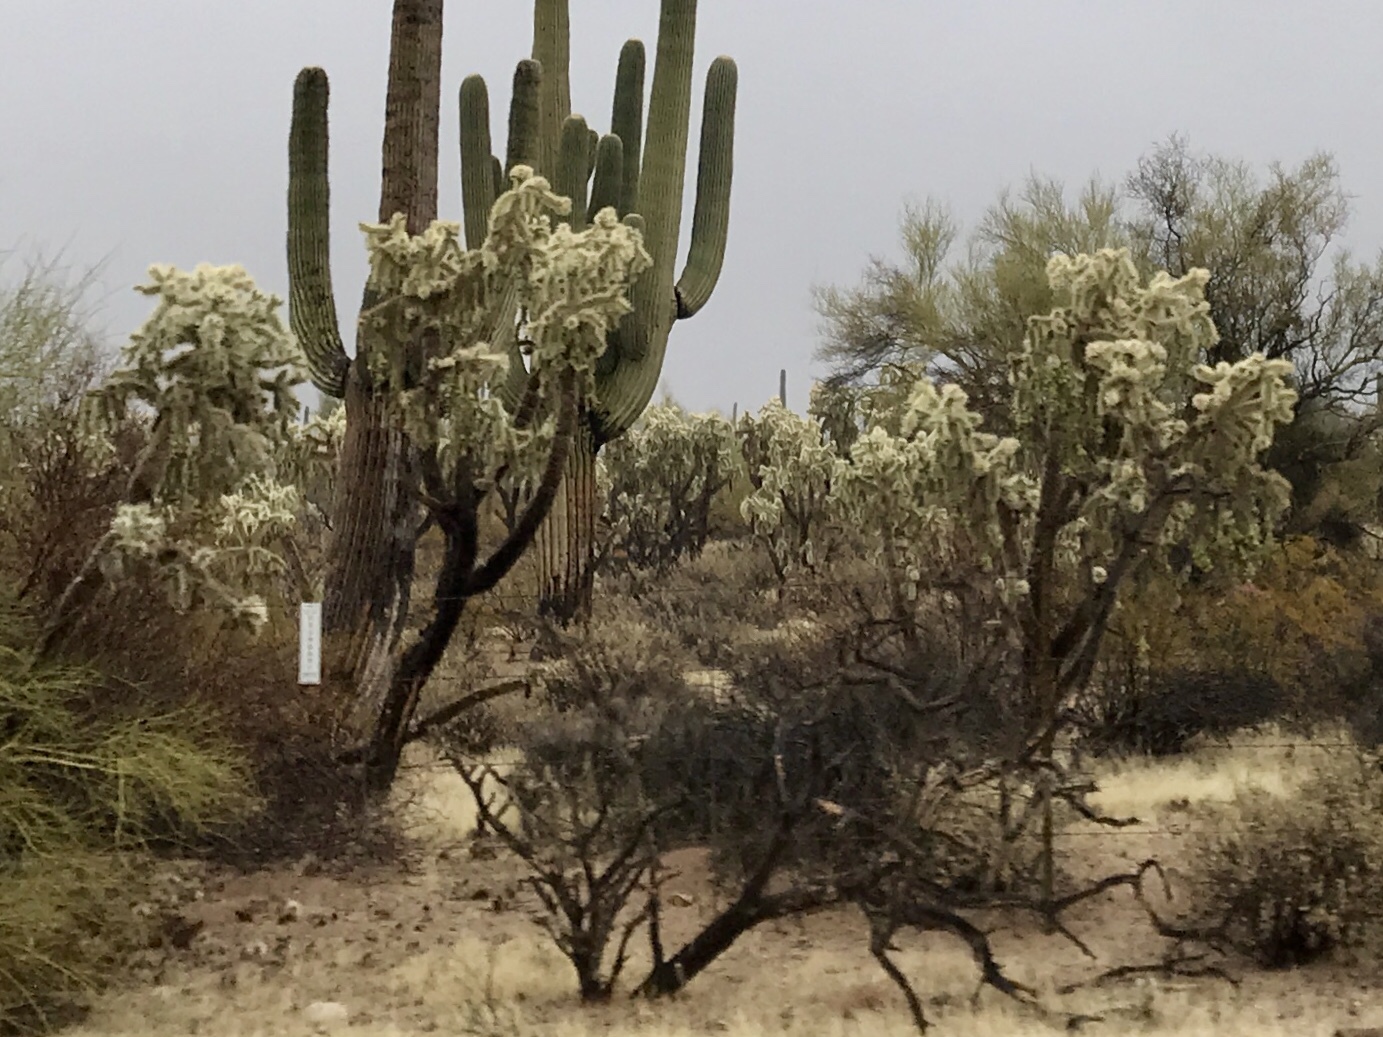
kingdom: Plantae
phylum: Tracheophyta
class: Magnoliopsida
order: Caryophyllales
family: Cactaceae
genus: Cylindropuntia
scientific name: Cylindropuntia fulgida
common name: Jumping cholla
